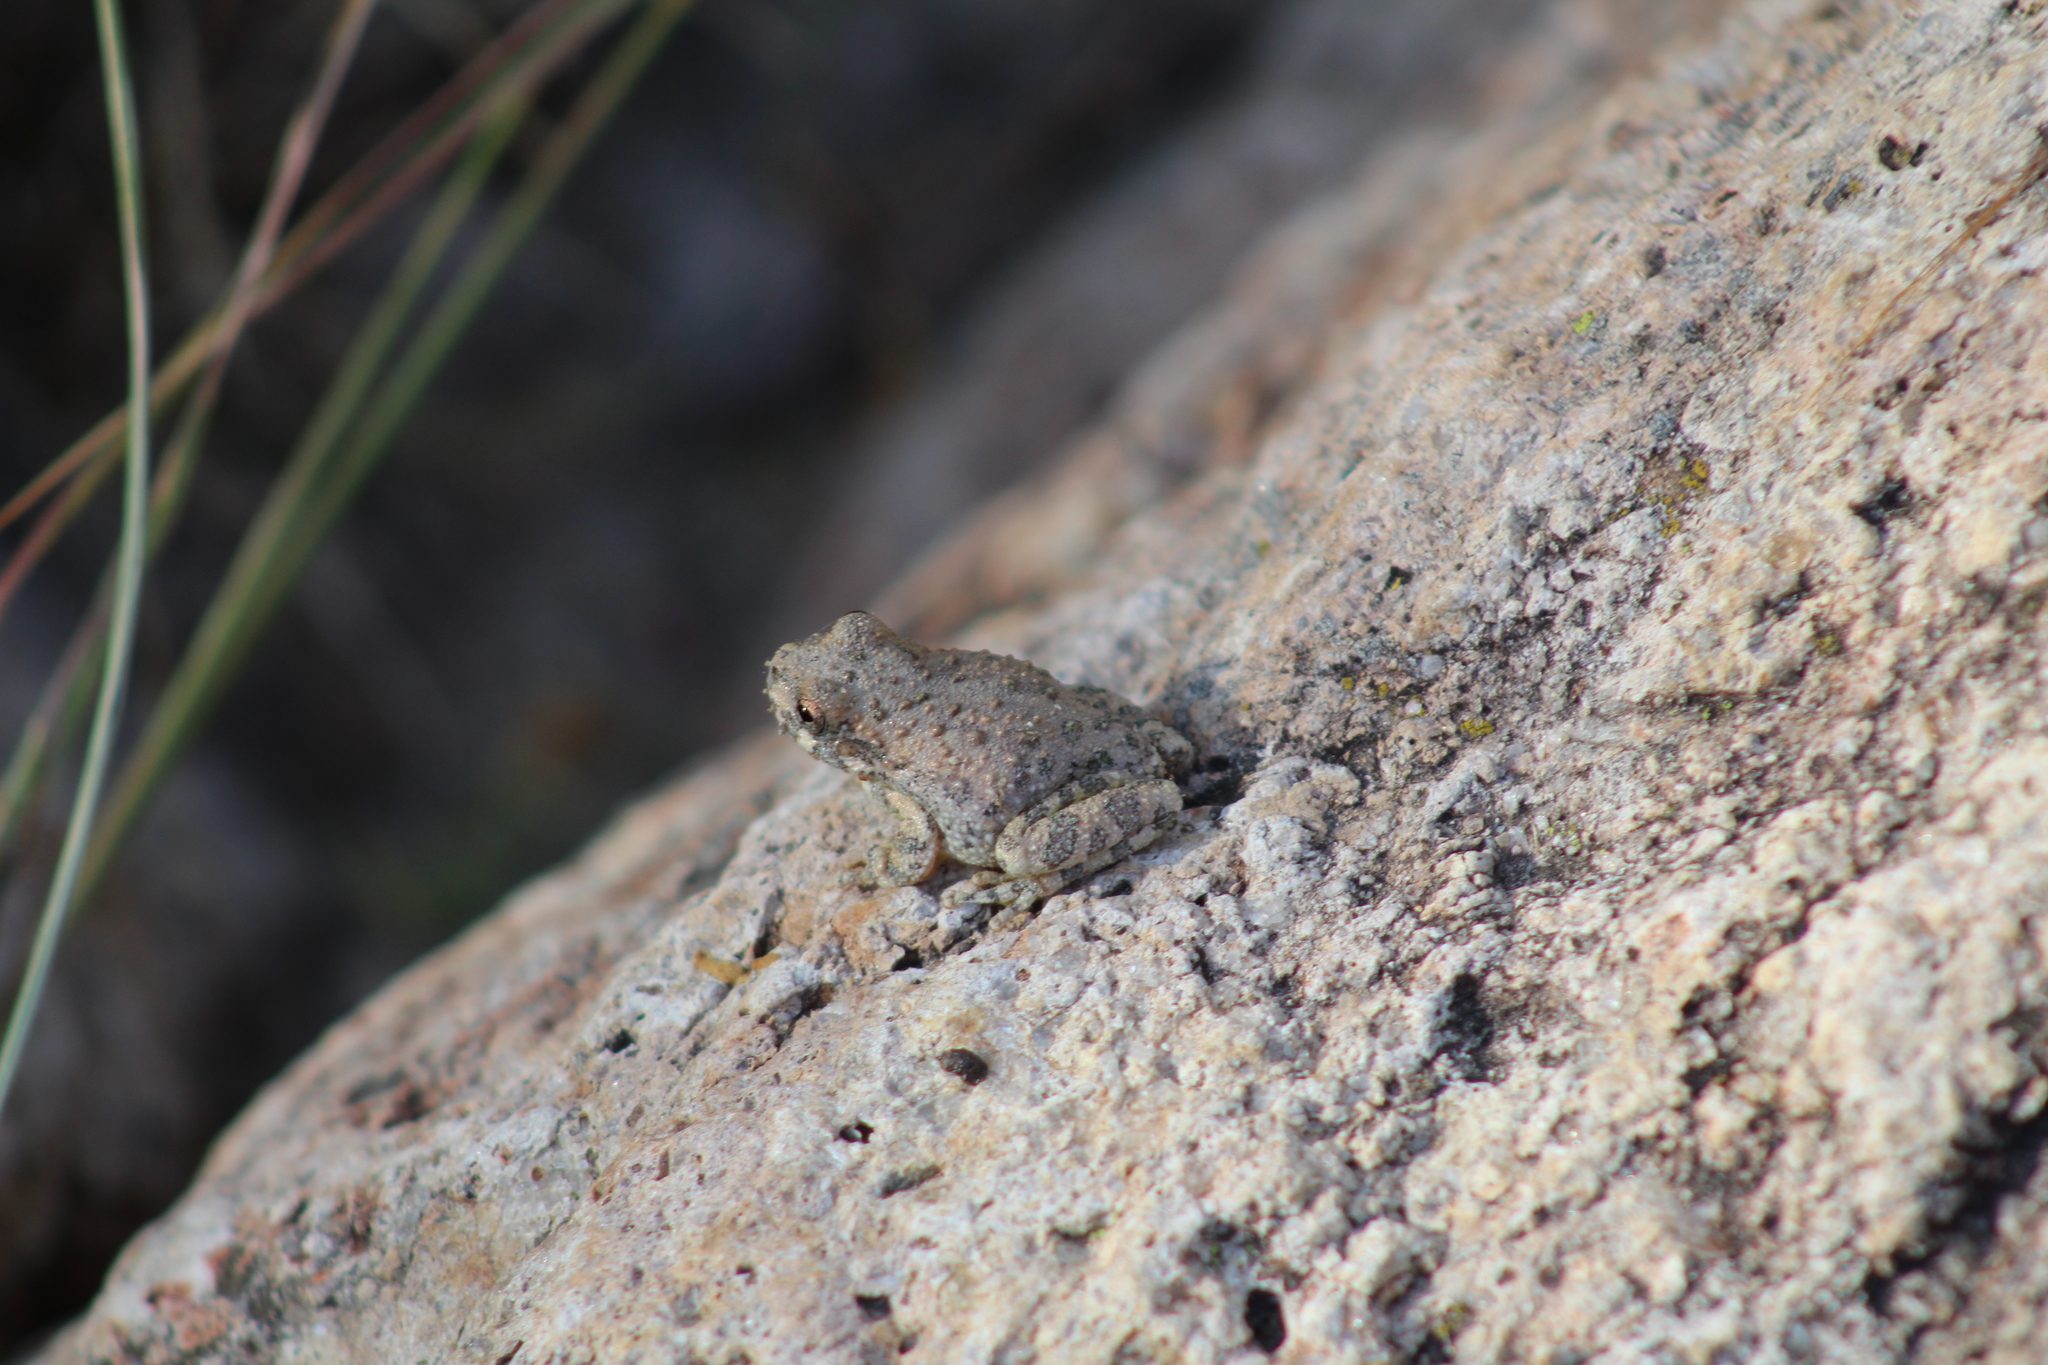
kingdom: Animalia
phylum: Chordata
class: Amphibia
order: Anura
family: Hylidae
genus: Dryophytes
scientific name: Dryophytes arenicolor
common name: Canyon treefrog
